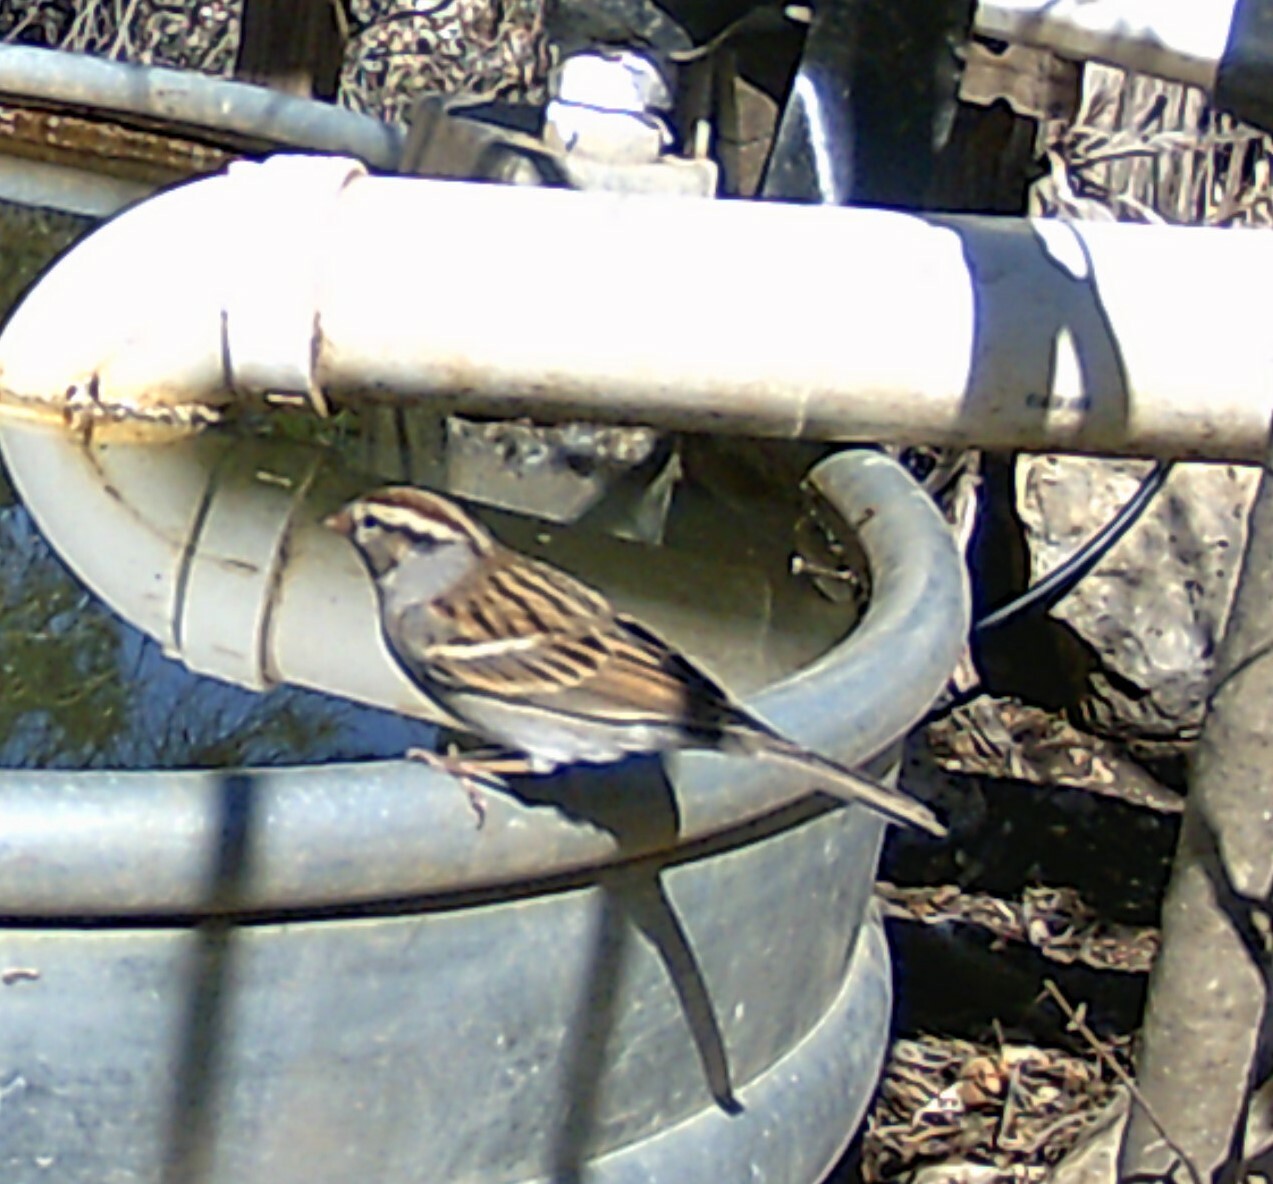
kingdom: Animalia
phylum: Chordata
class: Aves
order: Passeriformes
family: Passerellidae
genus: Spizella
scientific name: Spizella passerina
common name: Chipping sparrow
